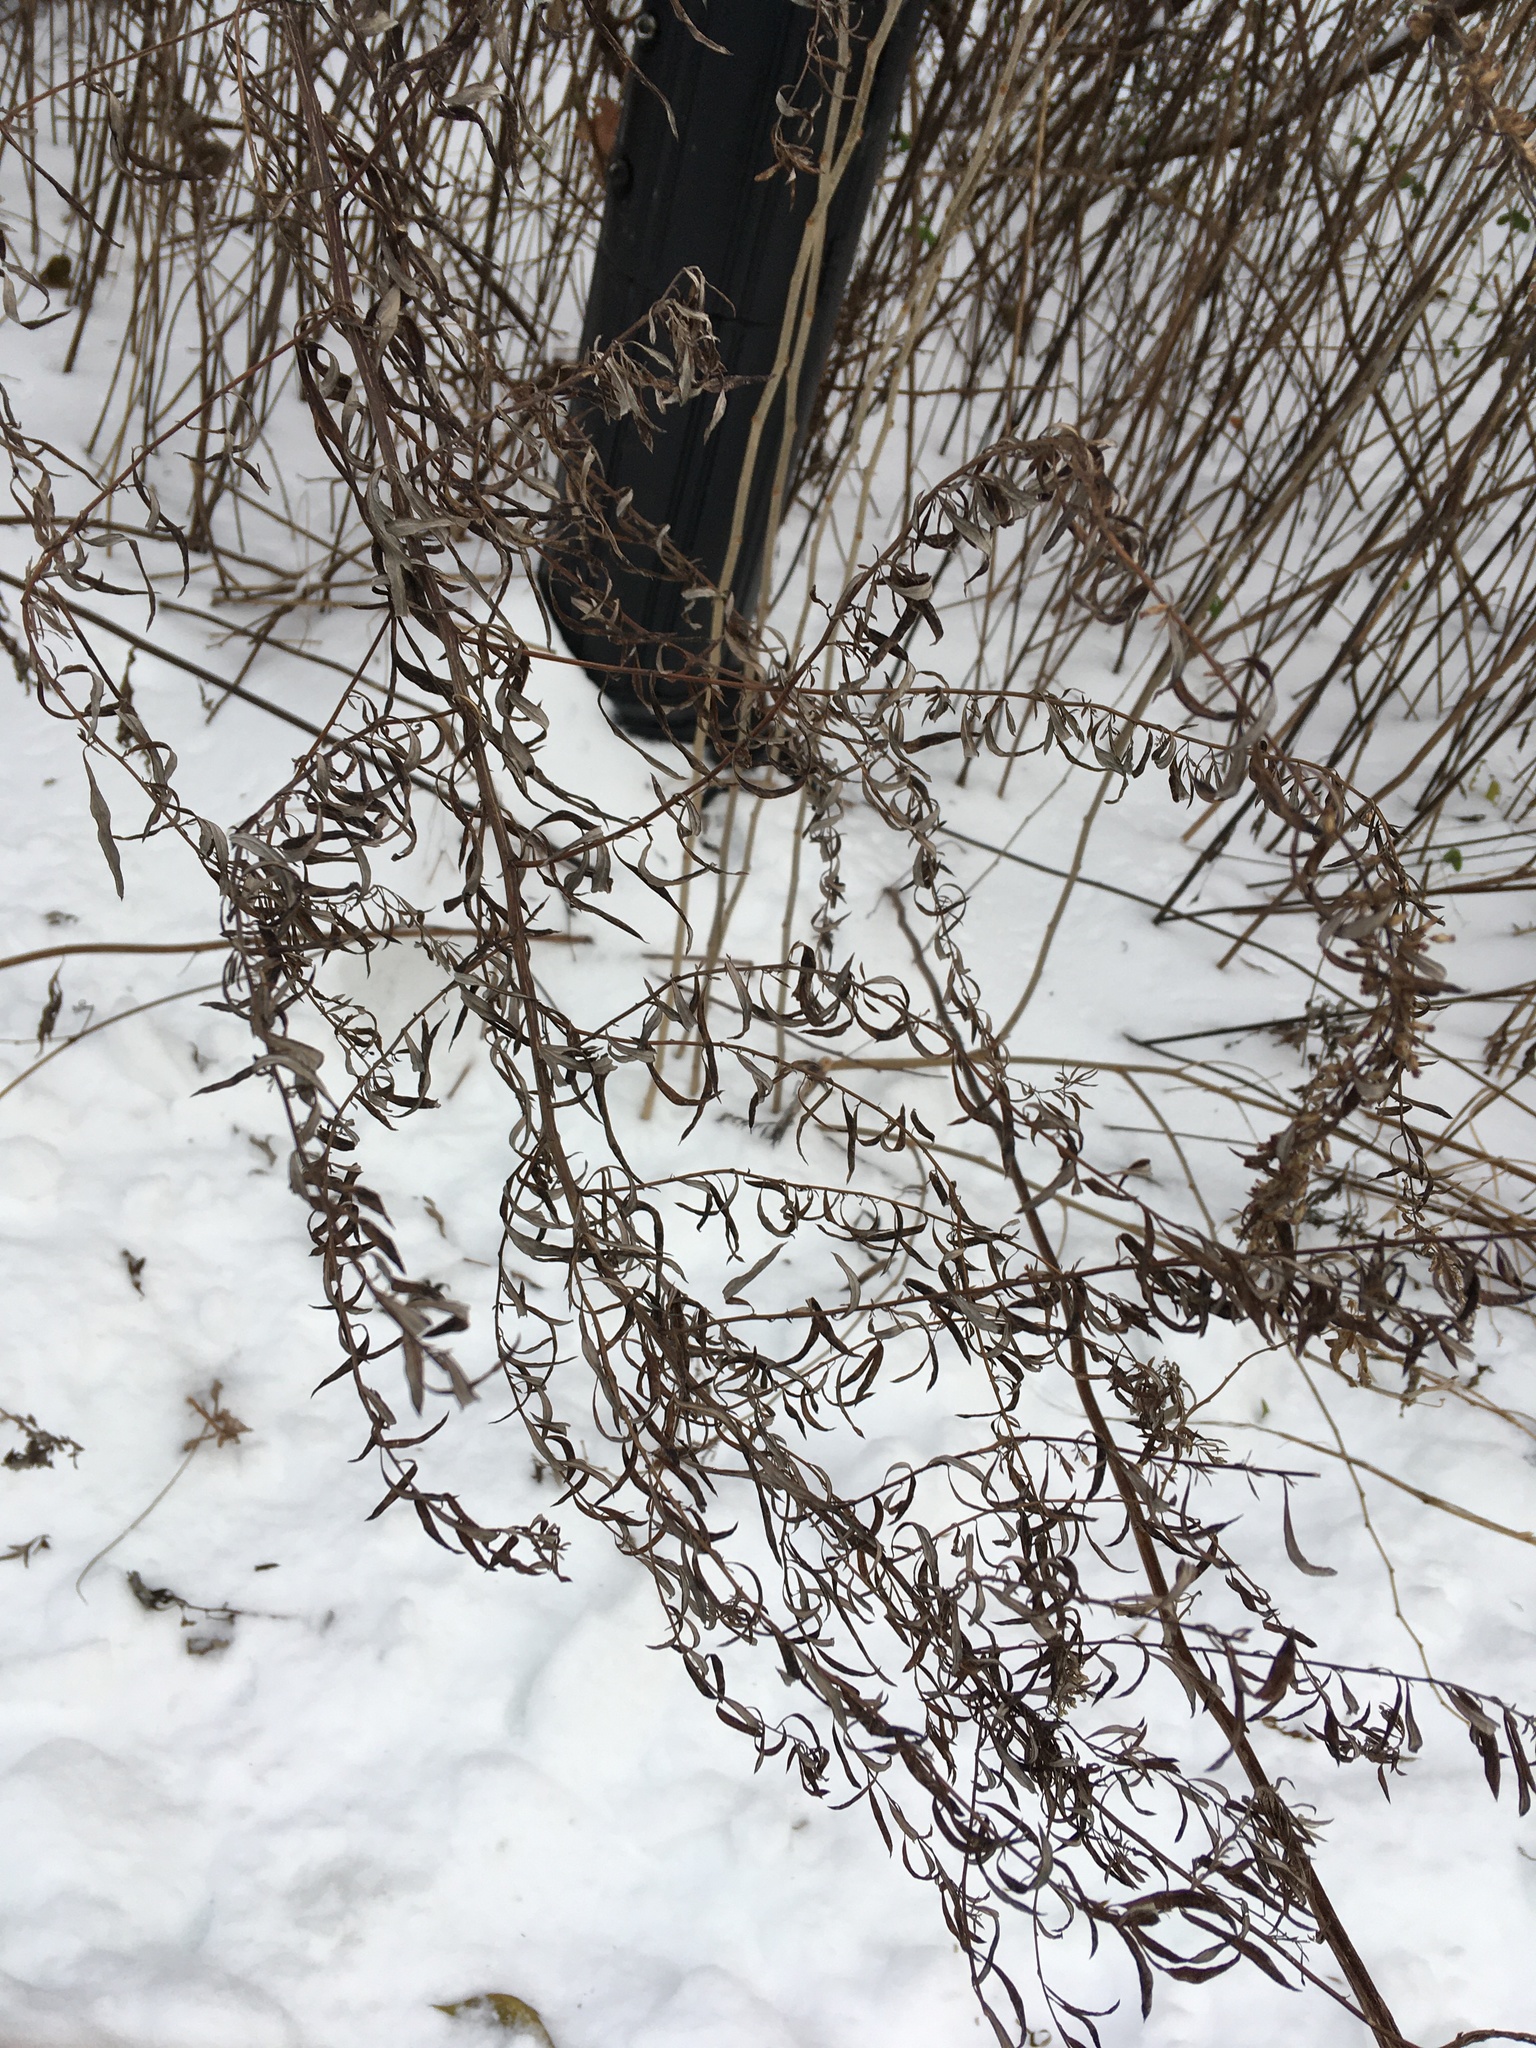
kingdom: Plantae
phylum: Tracheophyta
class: Magnoliopsida
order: Asterales
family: Asteraceae
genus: Artemisia
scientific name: Artemisia vulgaris
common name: Mugwort
